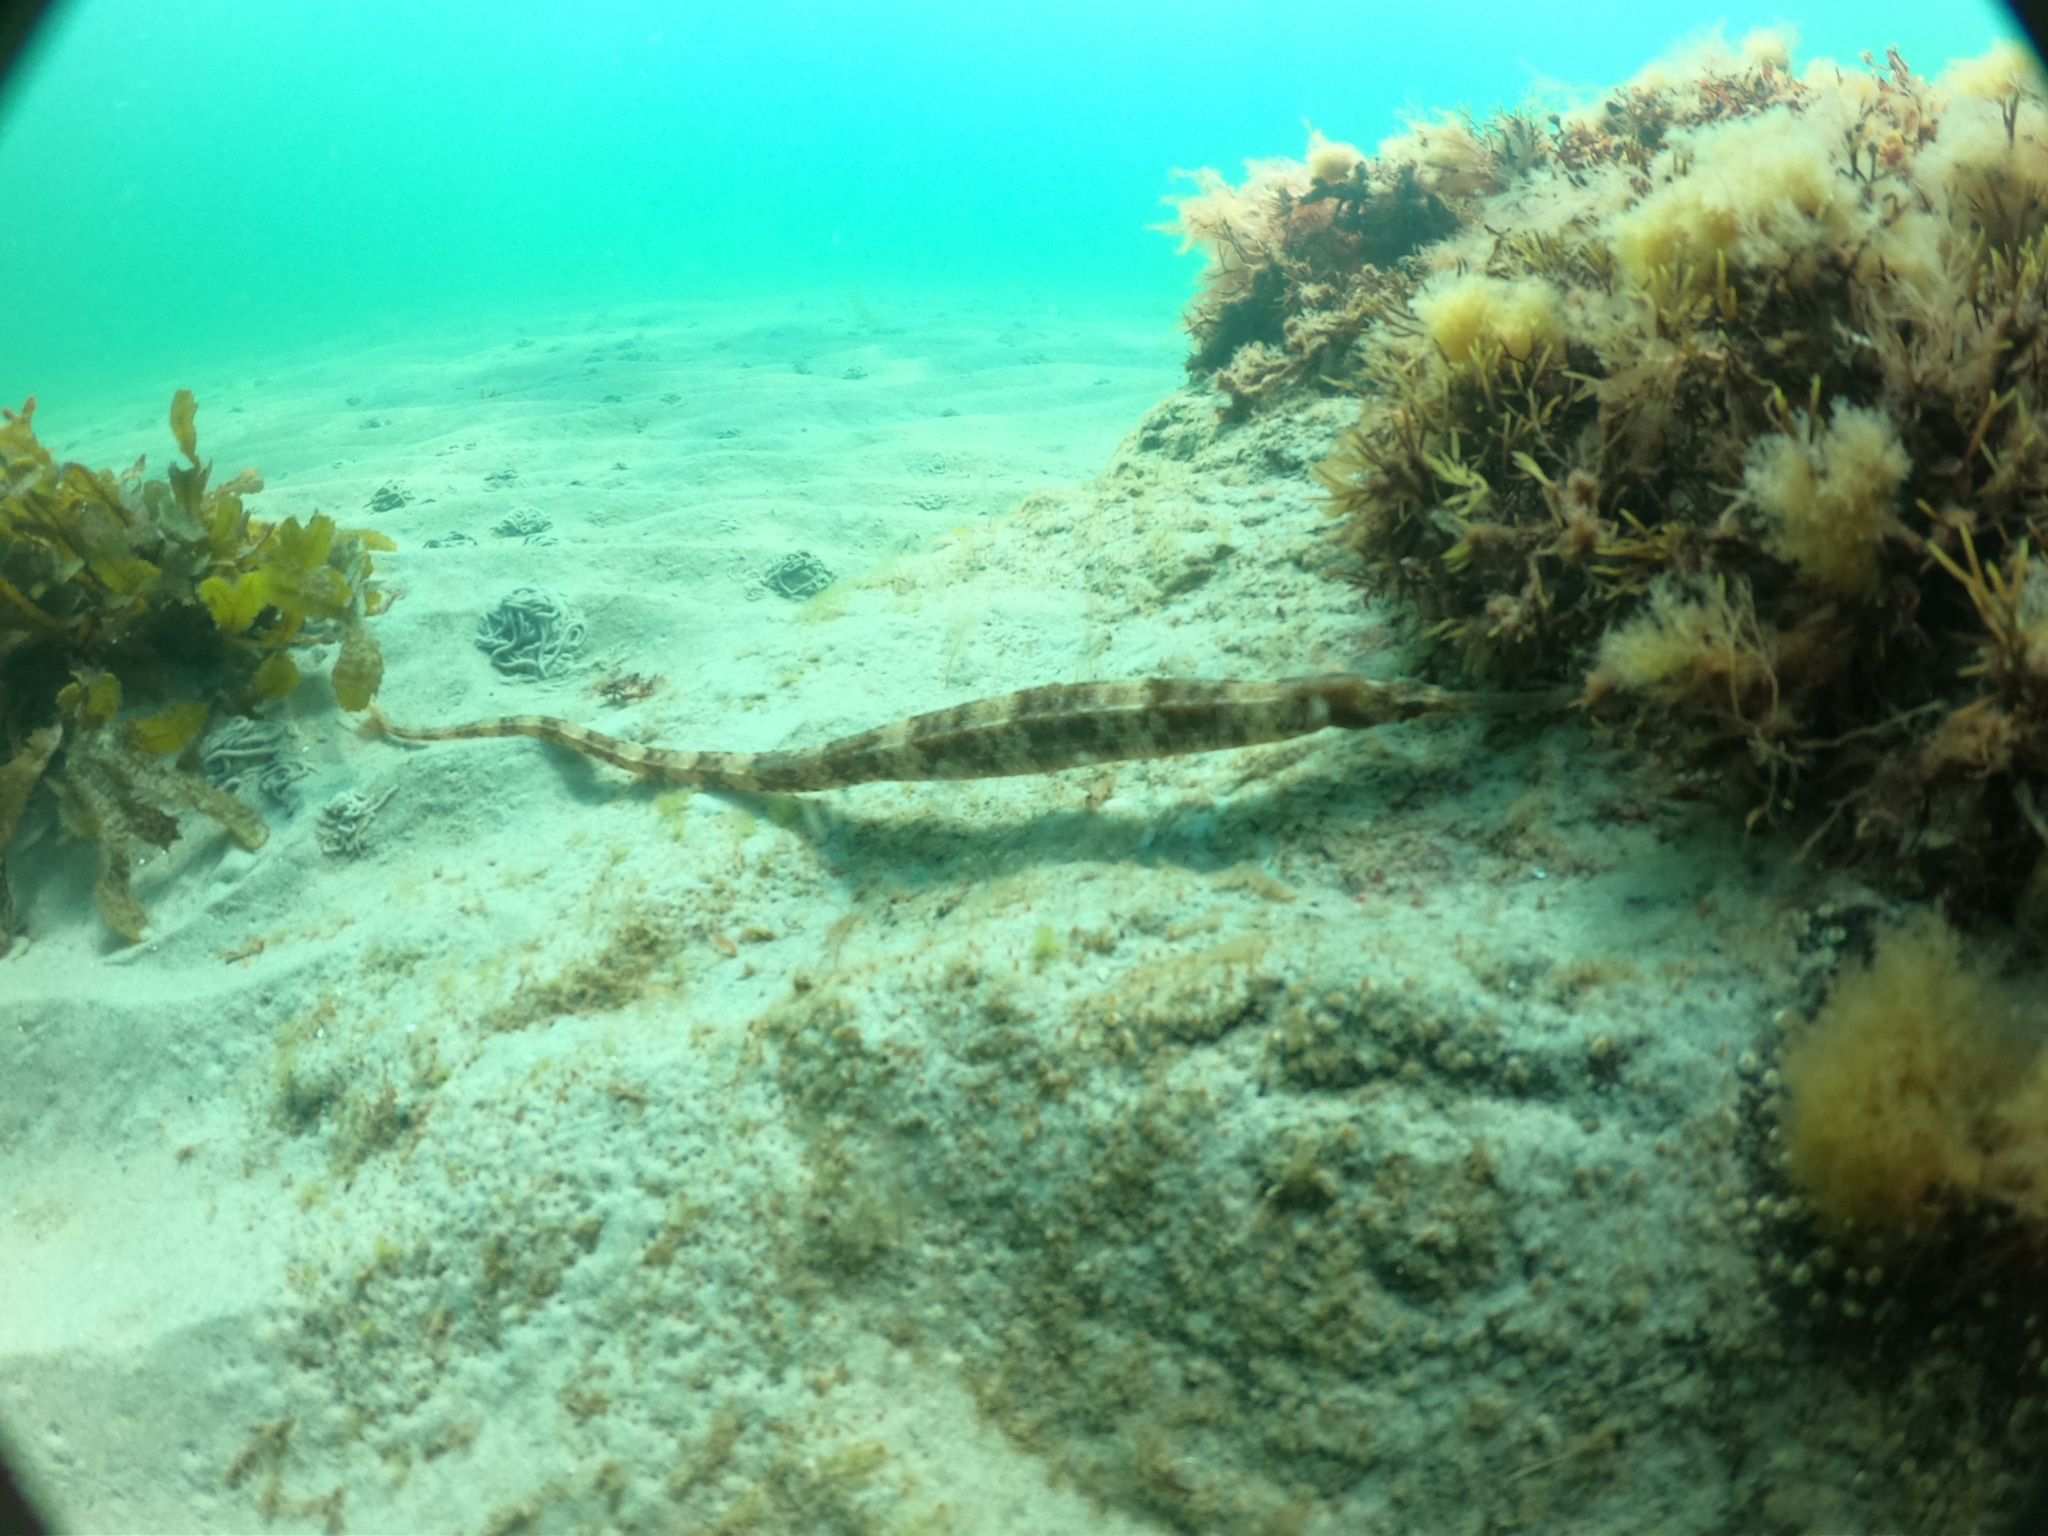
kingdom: Animalia
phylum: Chordata
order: Syngnathiformes
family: Syngnathidae
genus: Syngnathus
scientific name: Syngnathus acus
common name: Greater pipefish
